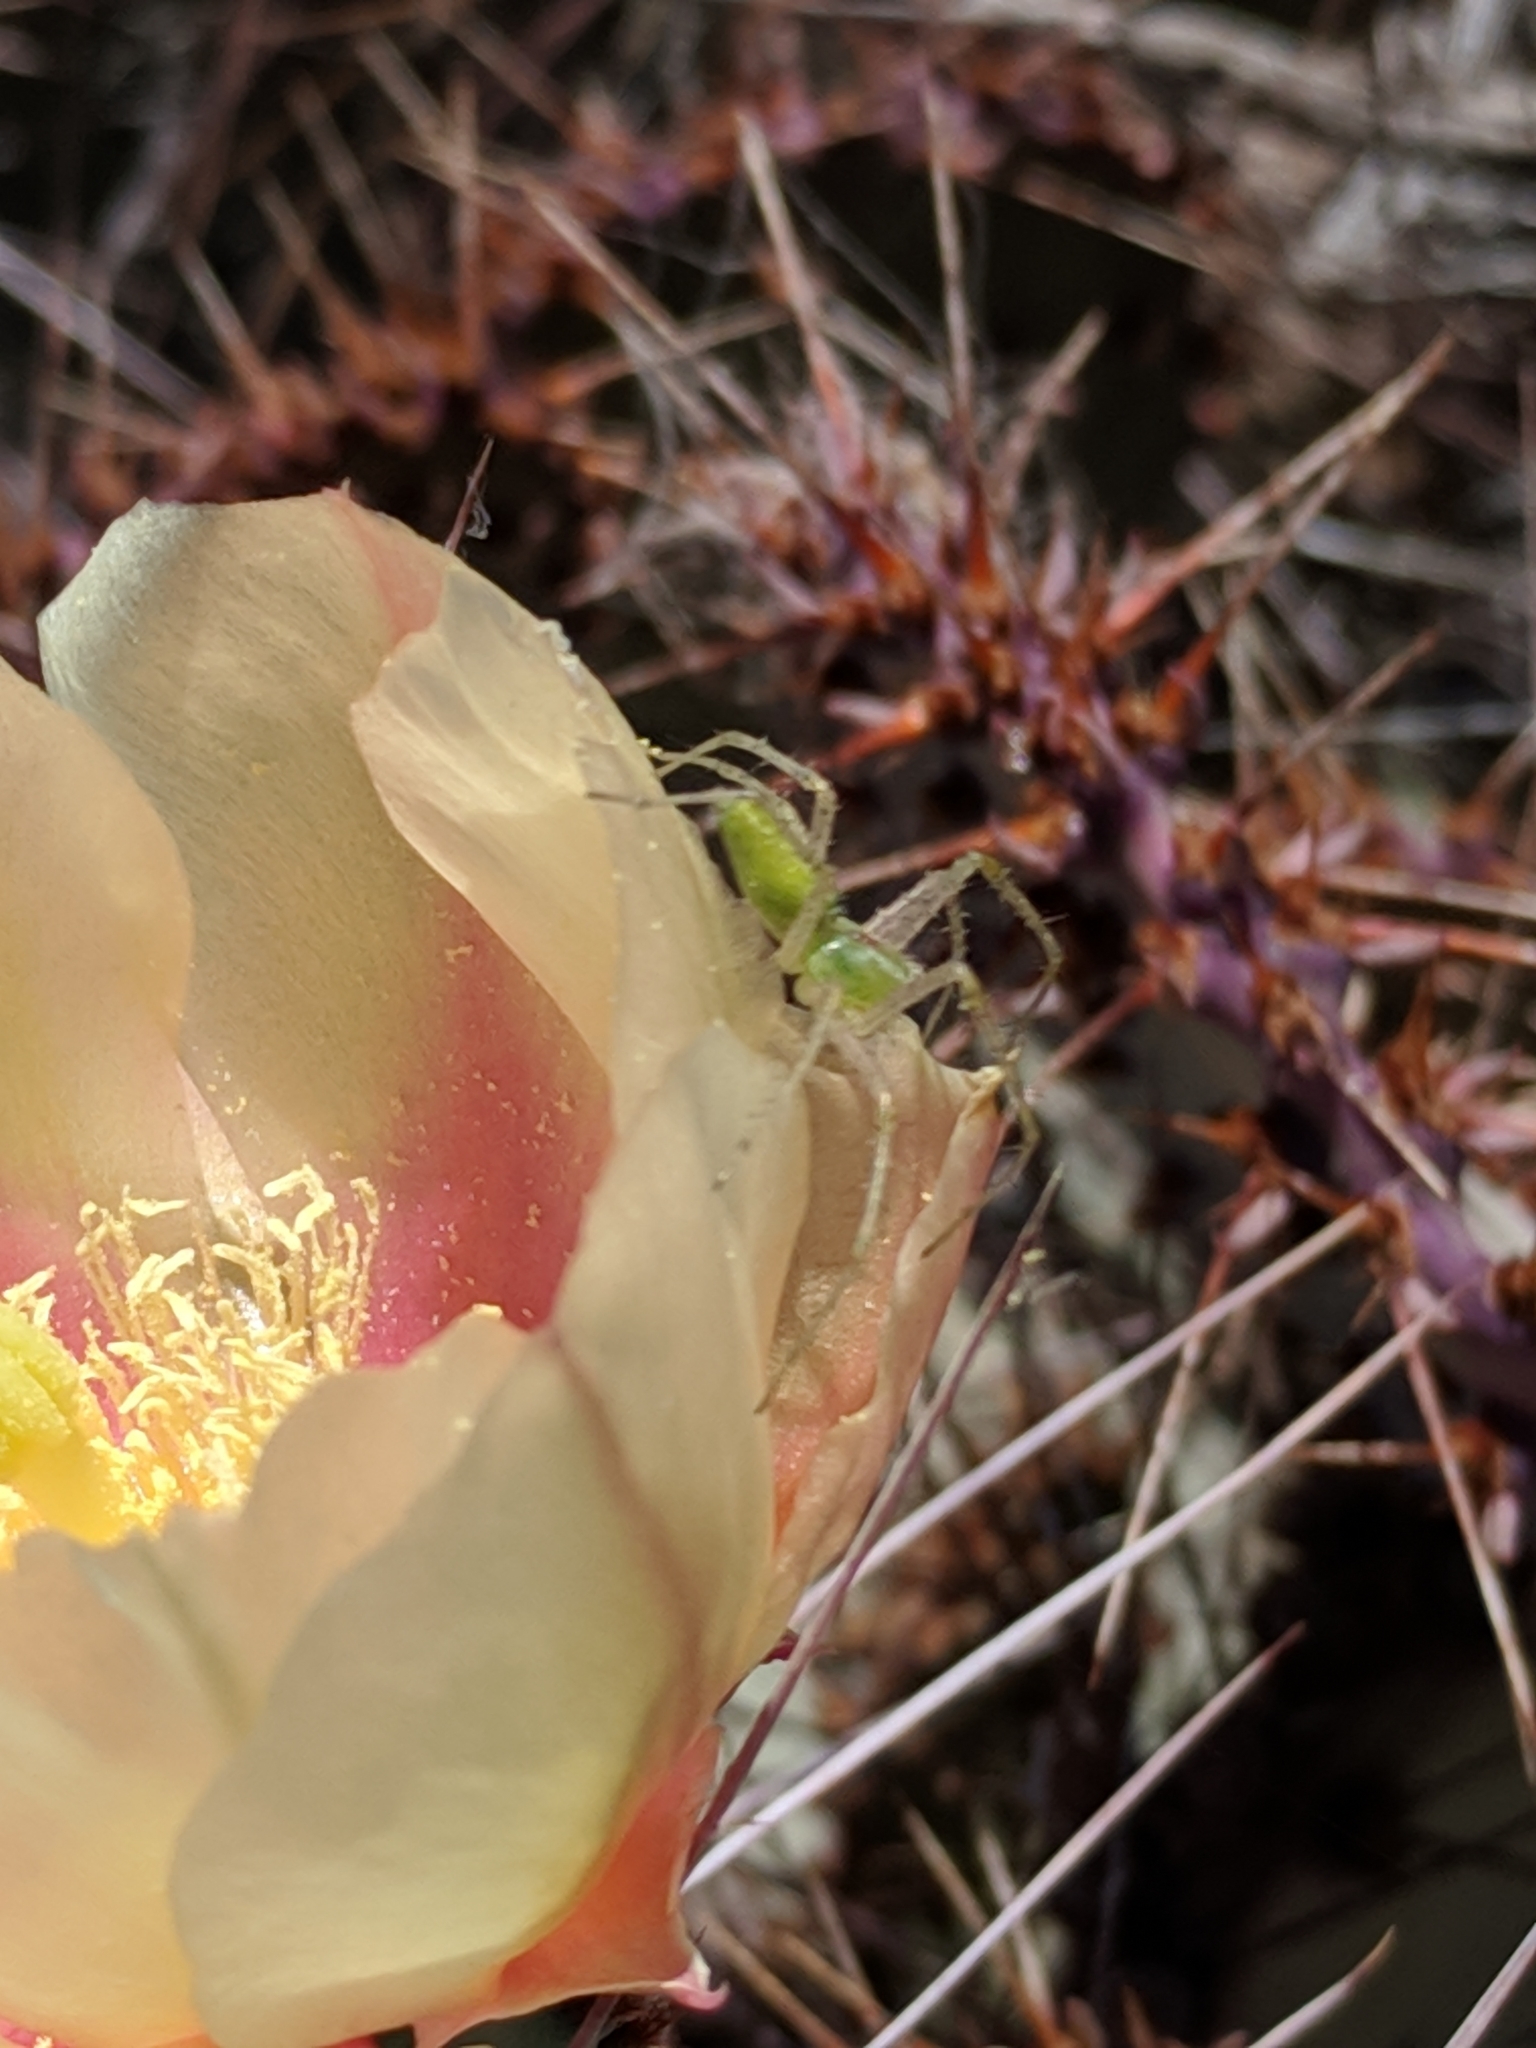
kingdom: Animalia
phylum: Arthropoda
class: Arachnida
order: Araneae
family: Oxyopidae
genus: Peucetia
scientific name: Peucetia longipalpis
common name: Lynx spiders
